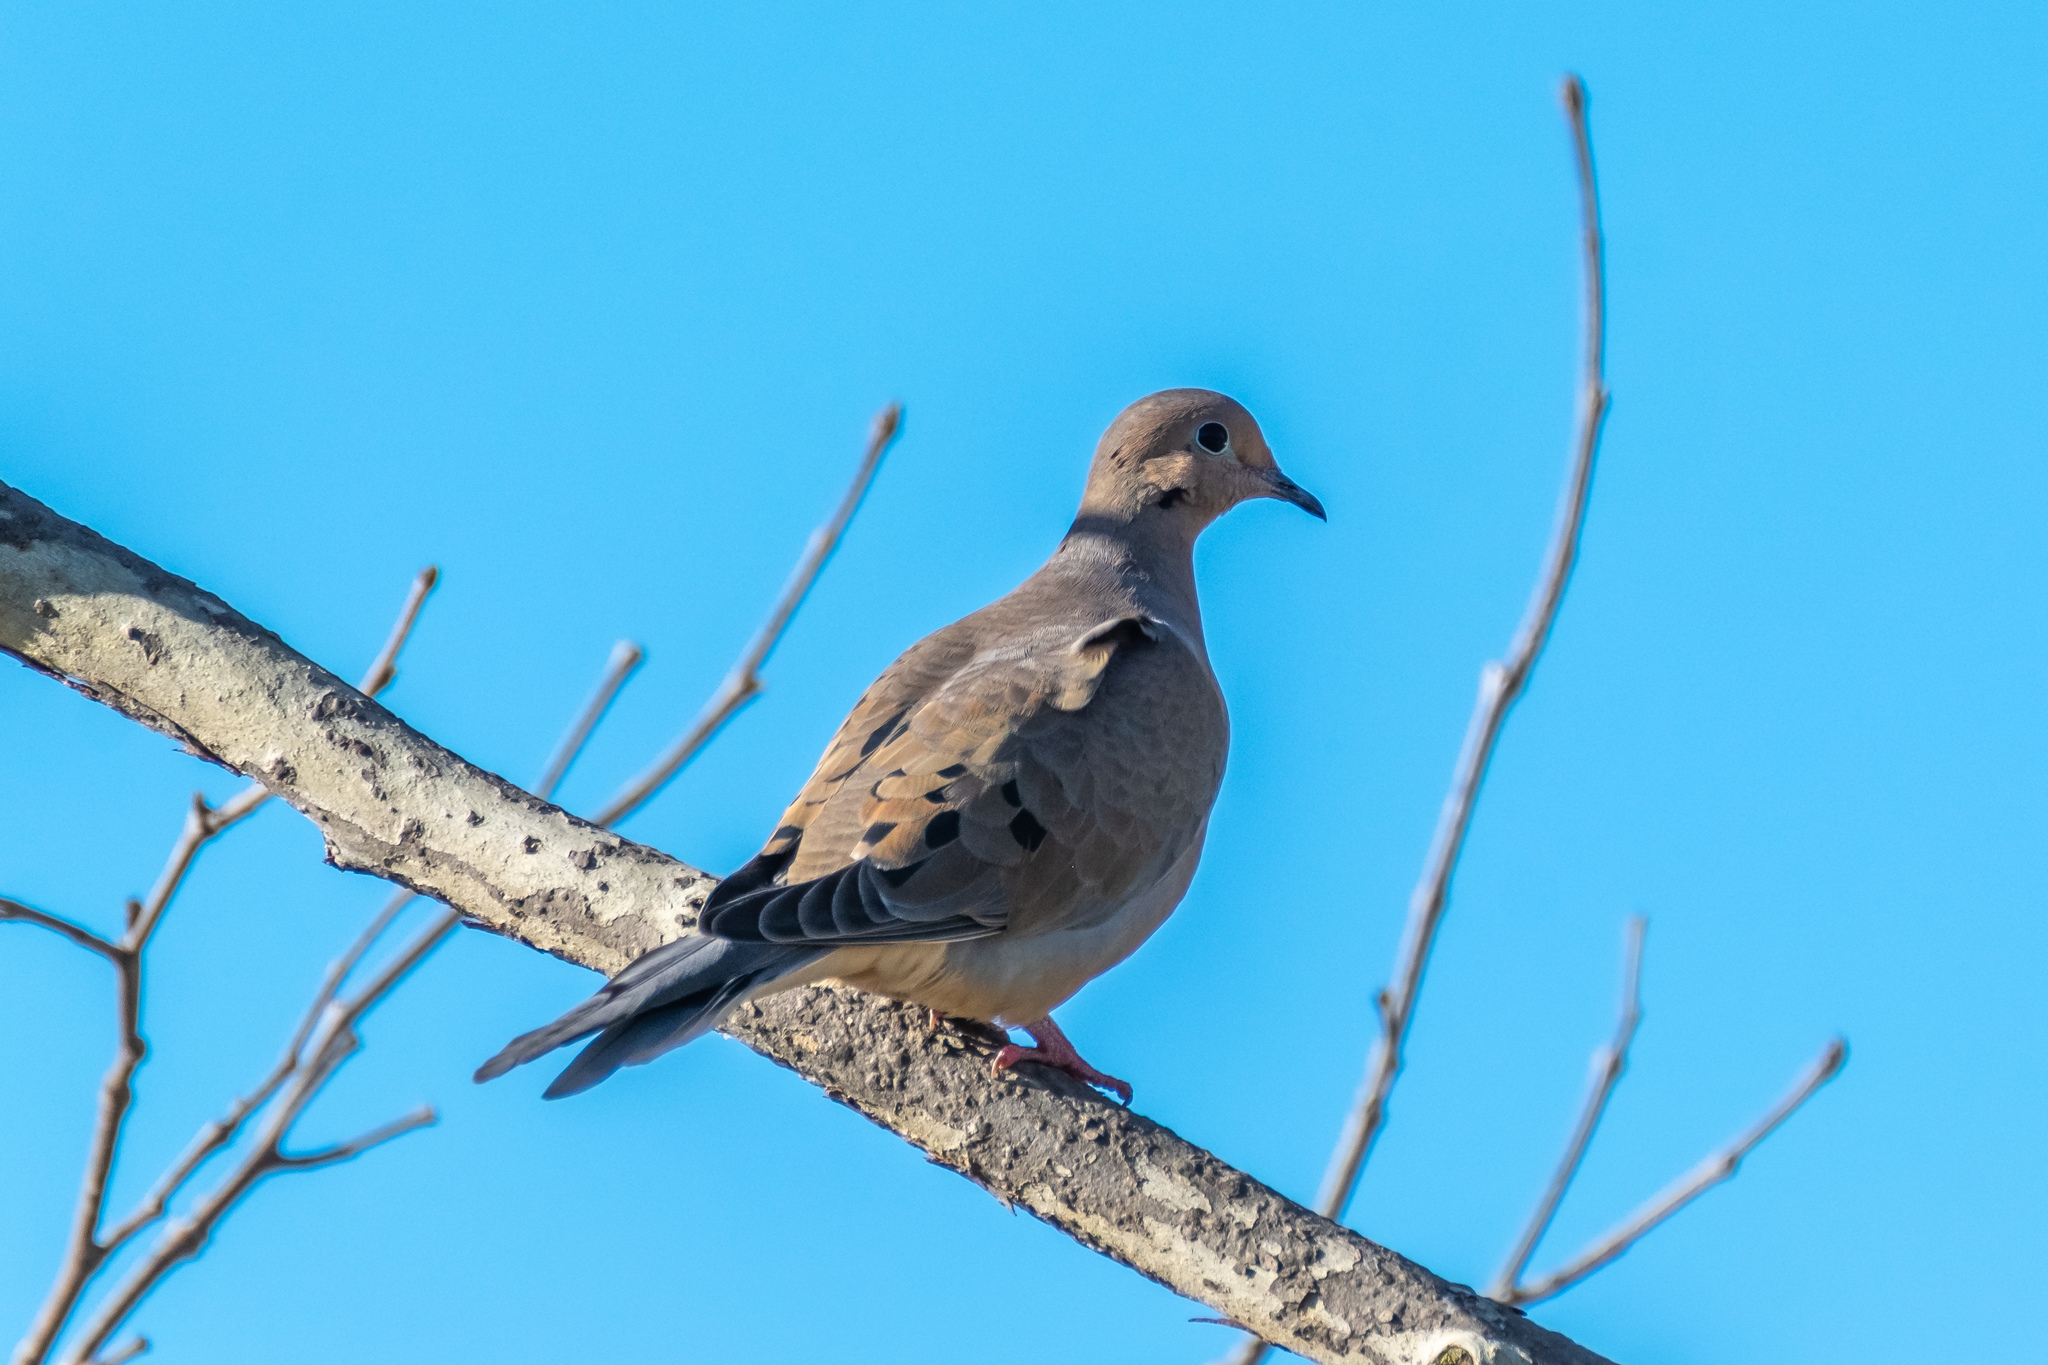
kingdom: Animalia
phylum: Chordata
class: Aves
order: Columbiformes
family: Columbidae
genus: Zenaida
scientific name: Zenaida macroura
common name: Mourning dove
